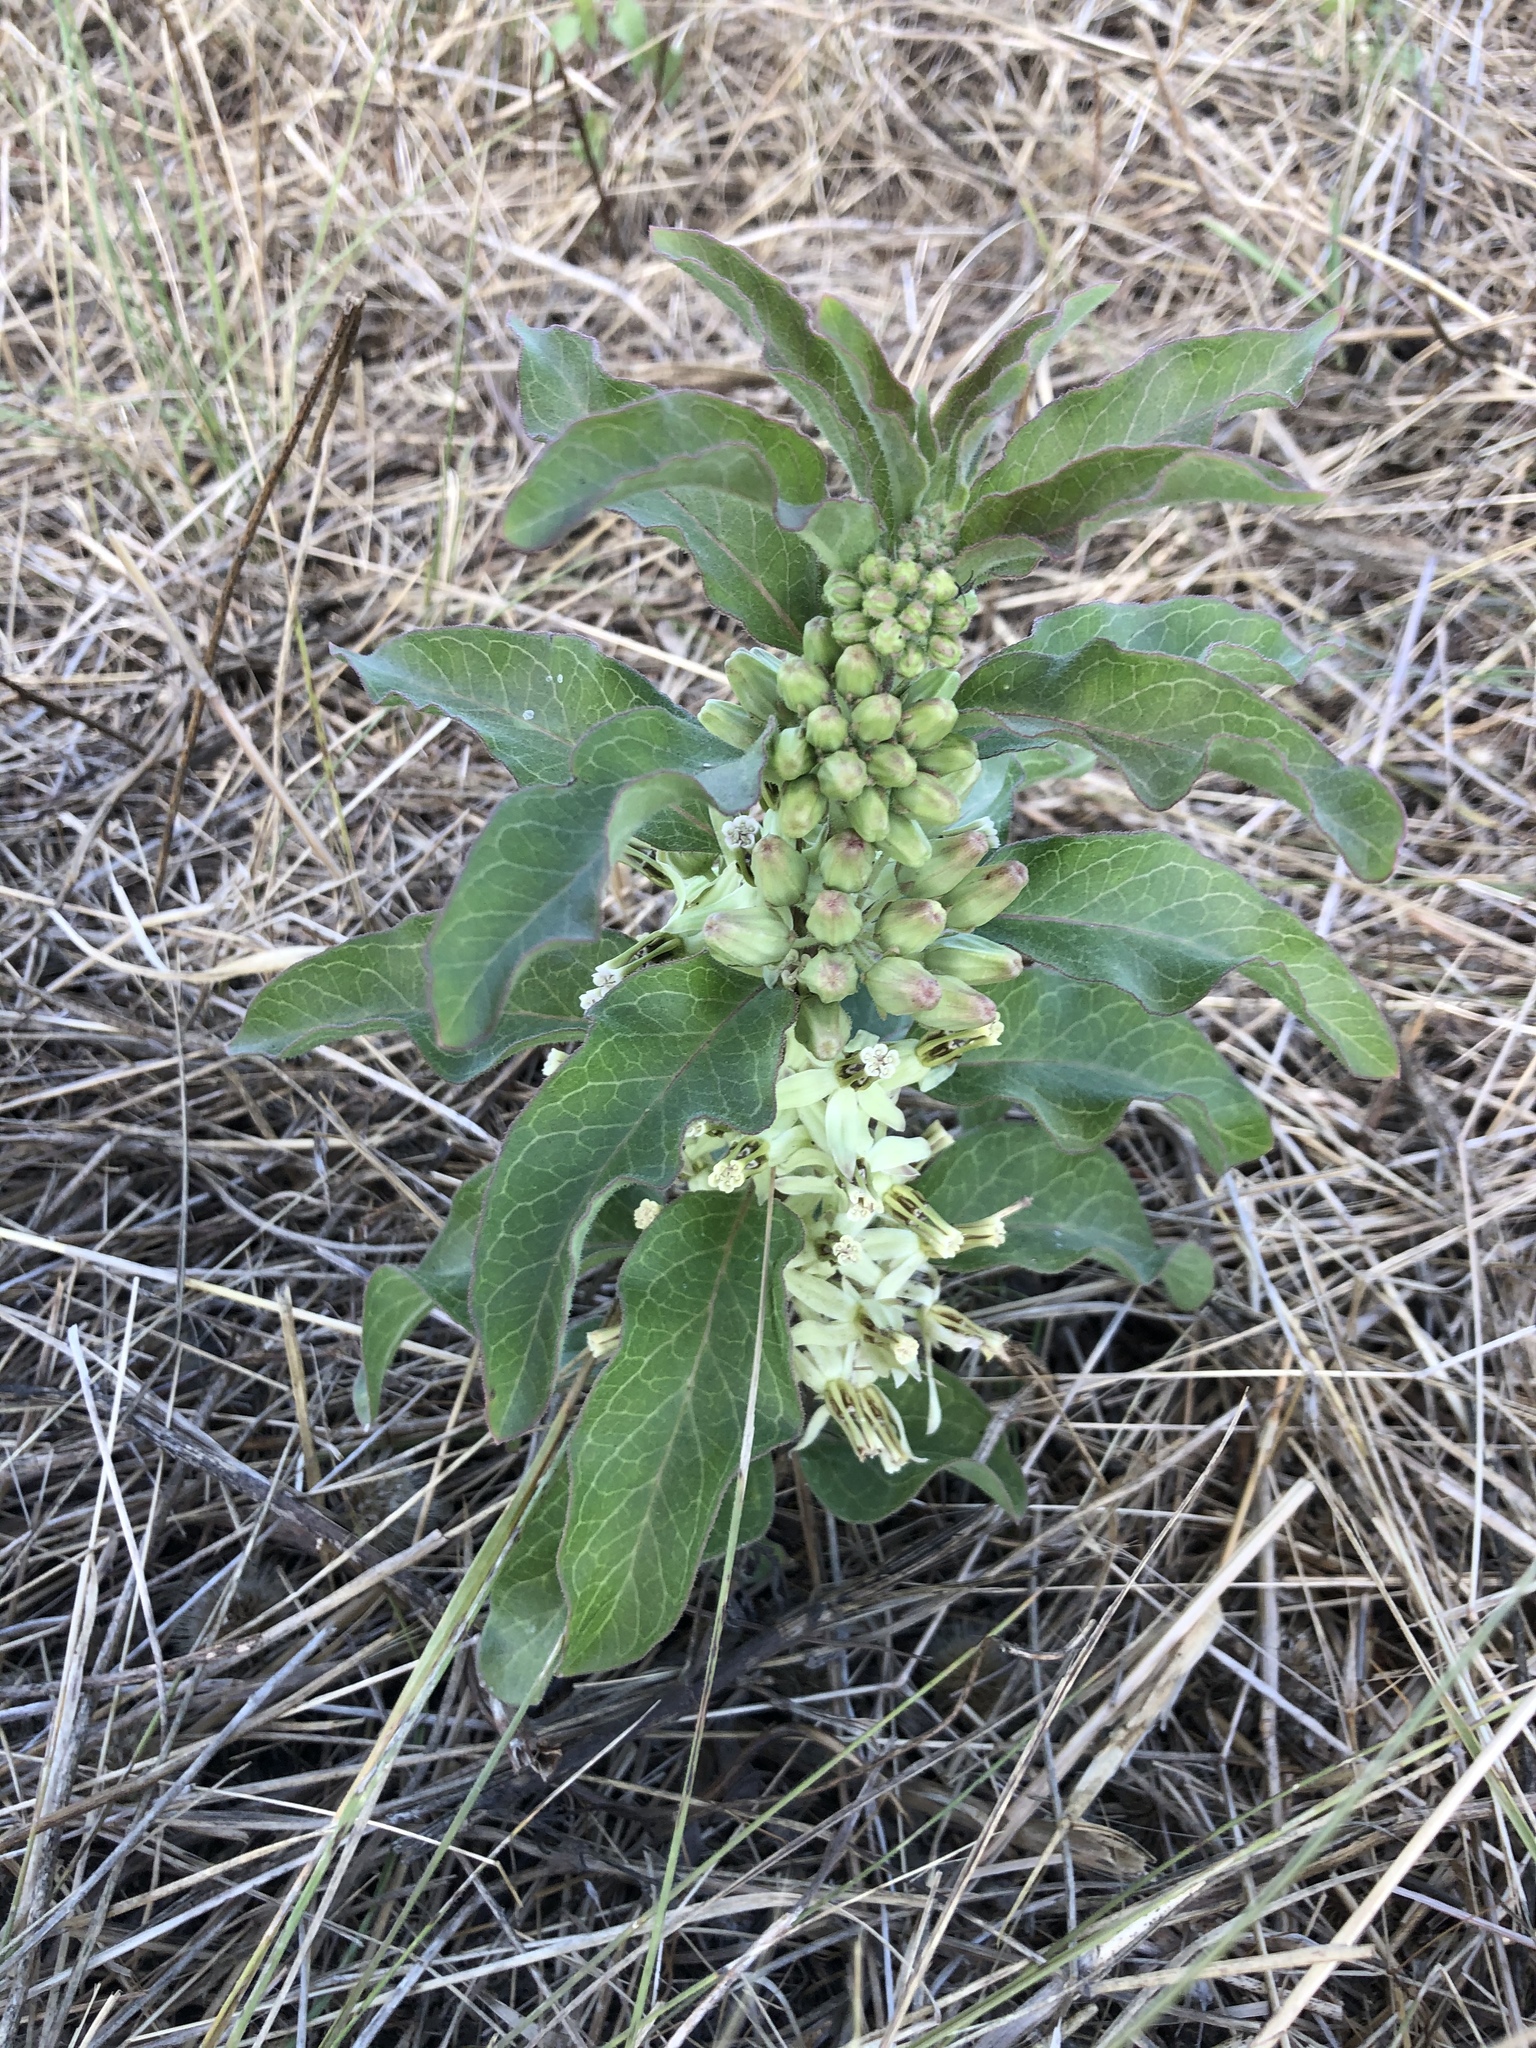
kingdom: Plantae
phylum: Tracheophyta
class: Magnoliopsida
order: Gentianales
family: Apocynaceae
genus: Asclepias
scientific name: Asclepias oenotheroides
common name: Zizotes milkweed
